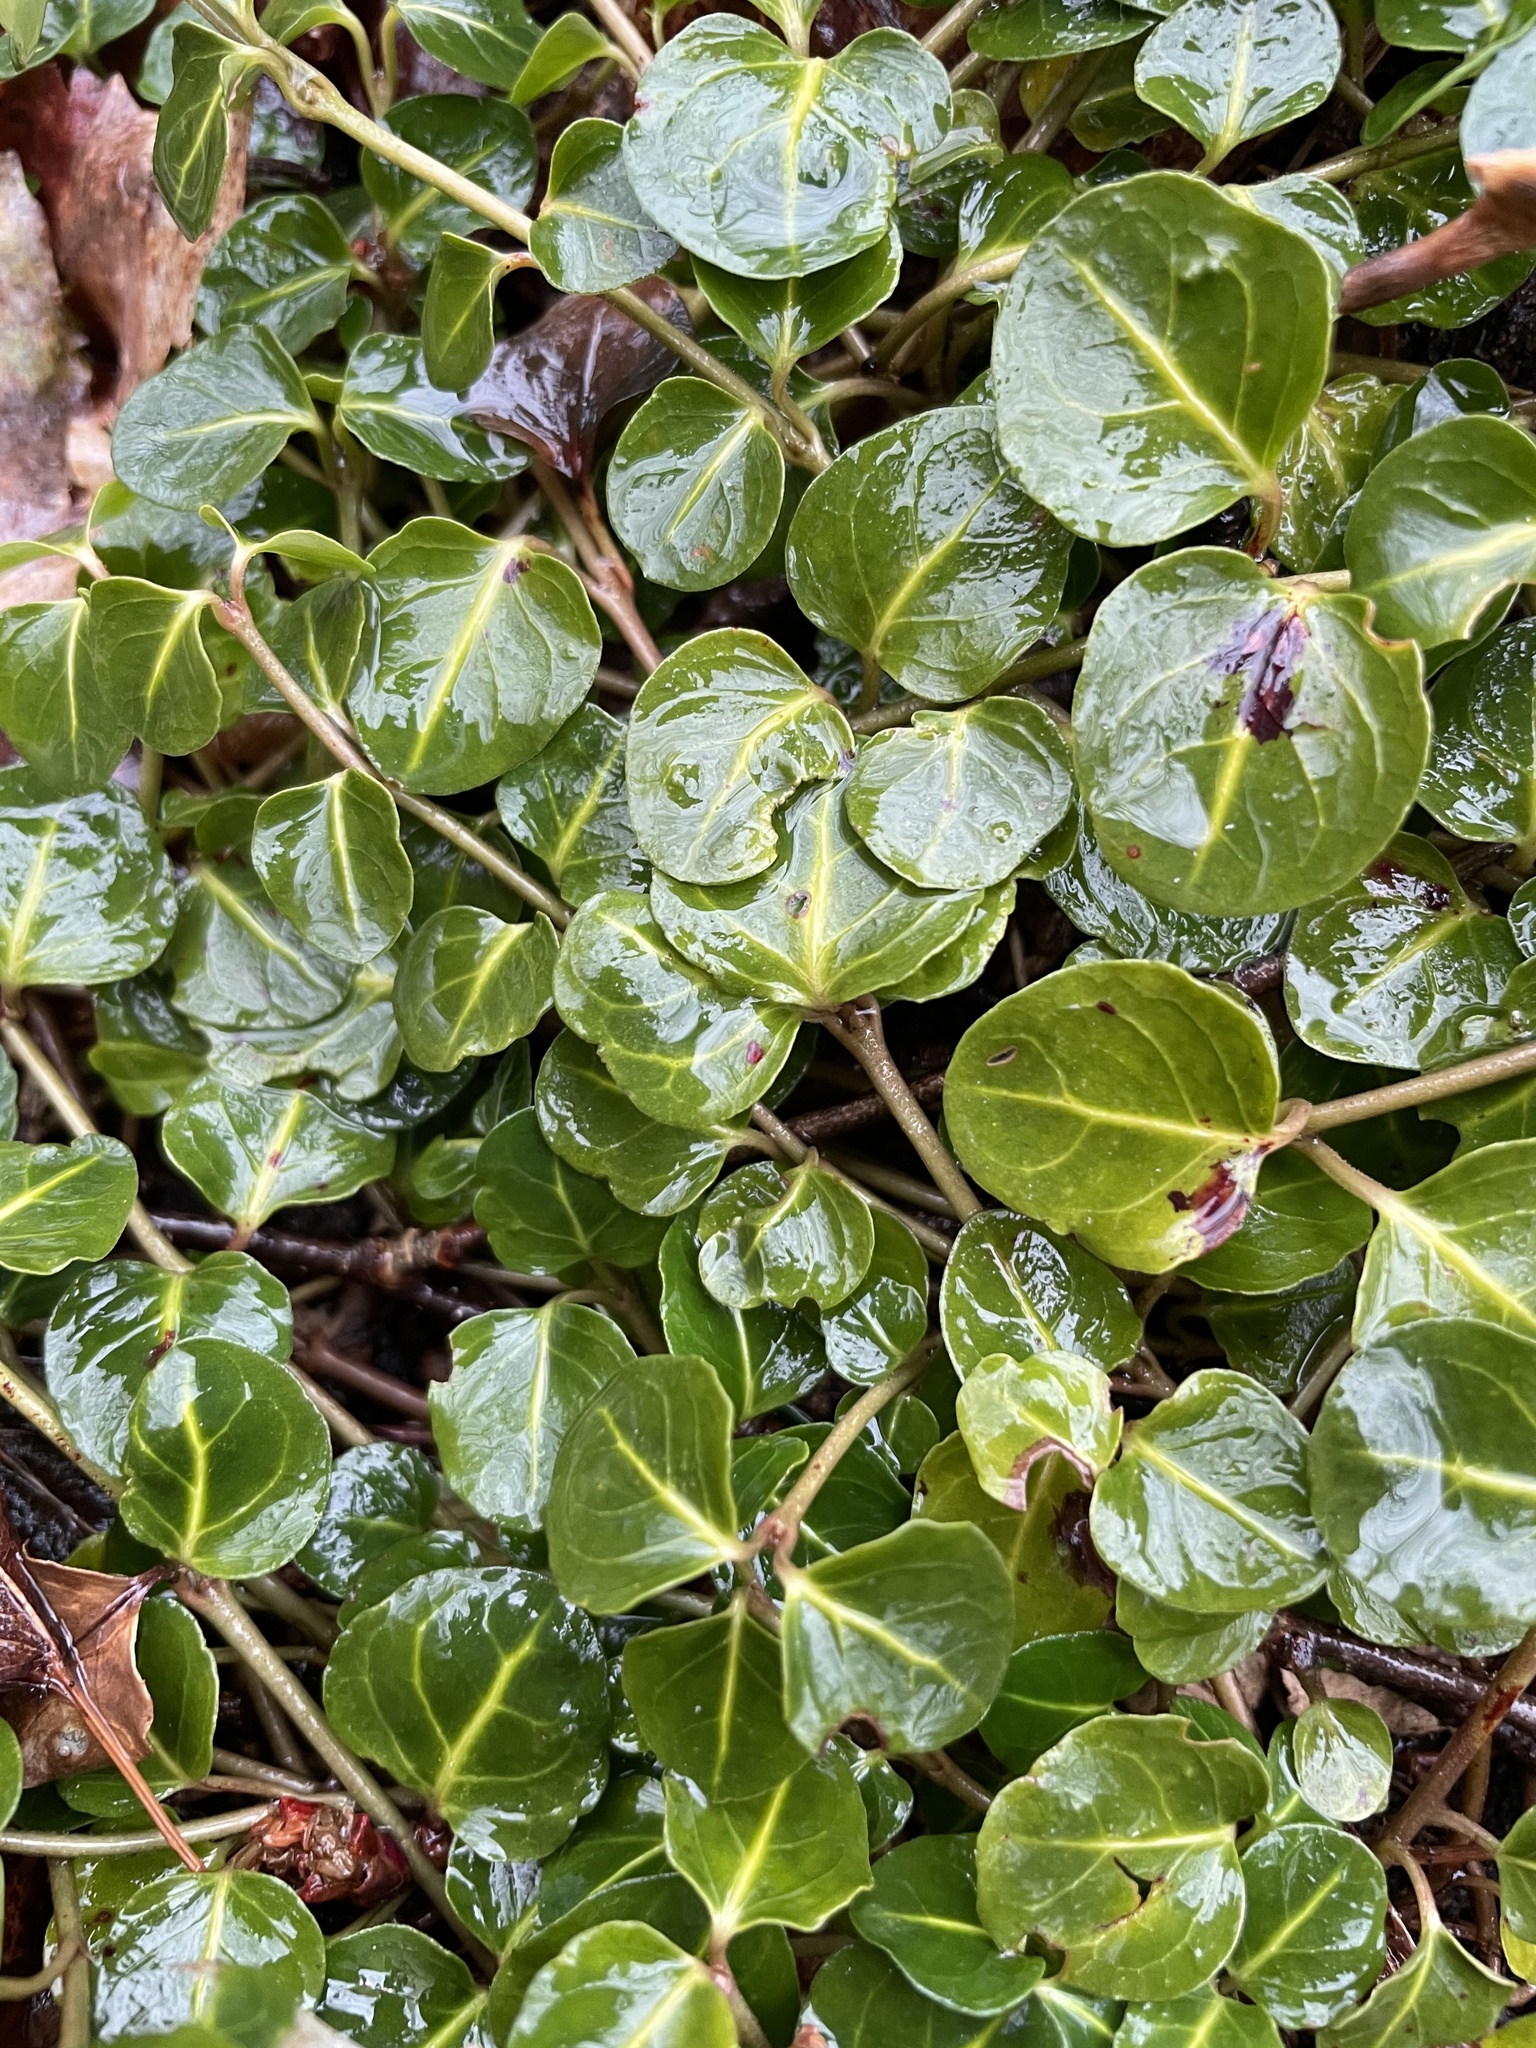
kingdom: Plantae
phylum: Tracheophyta
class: Magnoliopsida
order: Gentianales
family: Rubiaceae
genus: Mitchella
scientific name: Mitchella repens
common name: Partridge-berry
